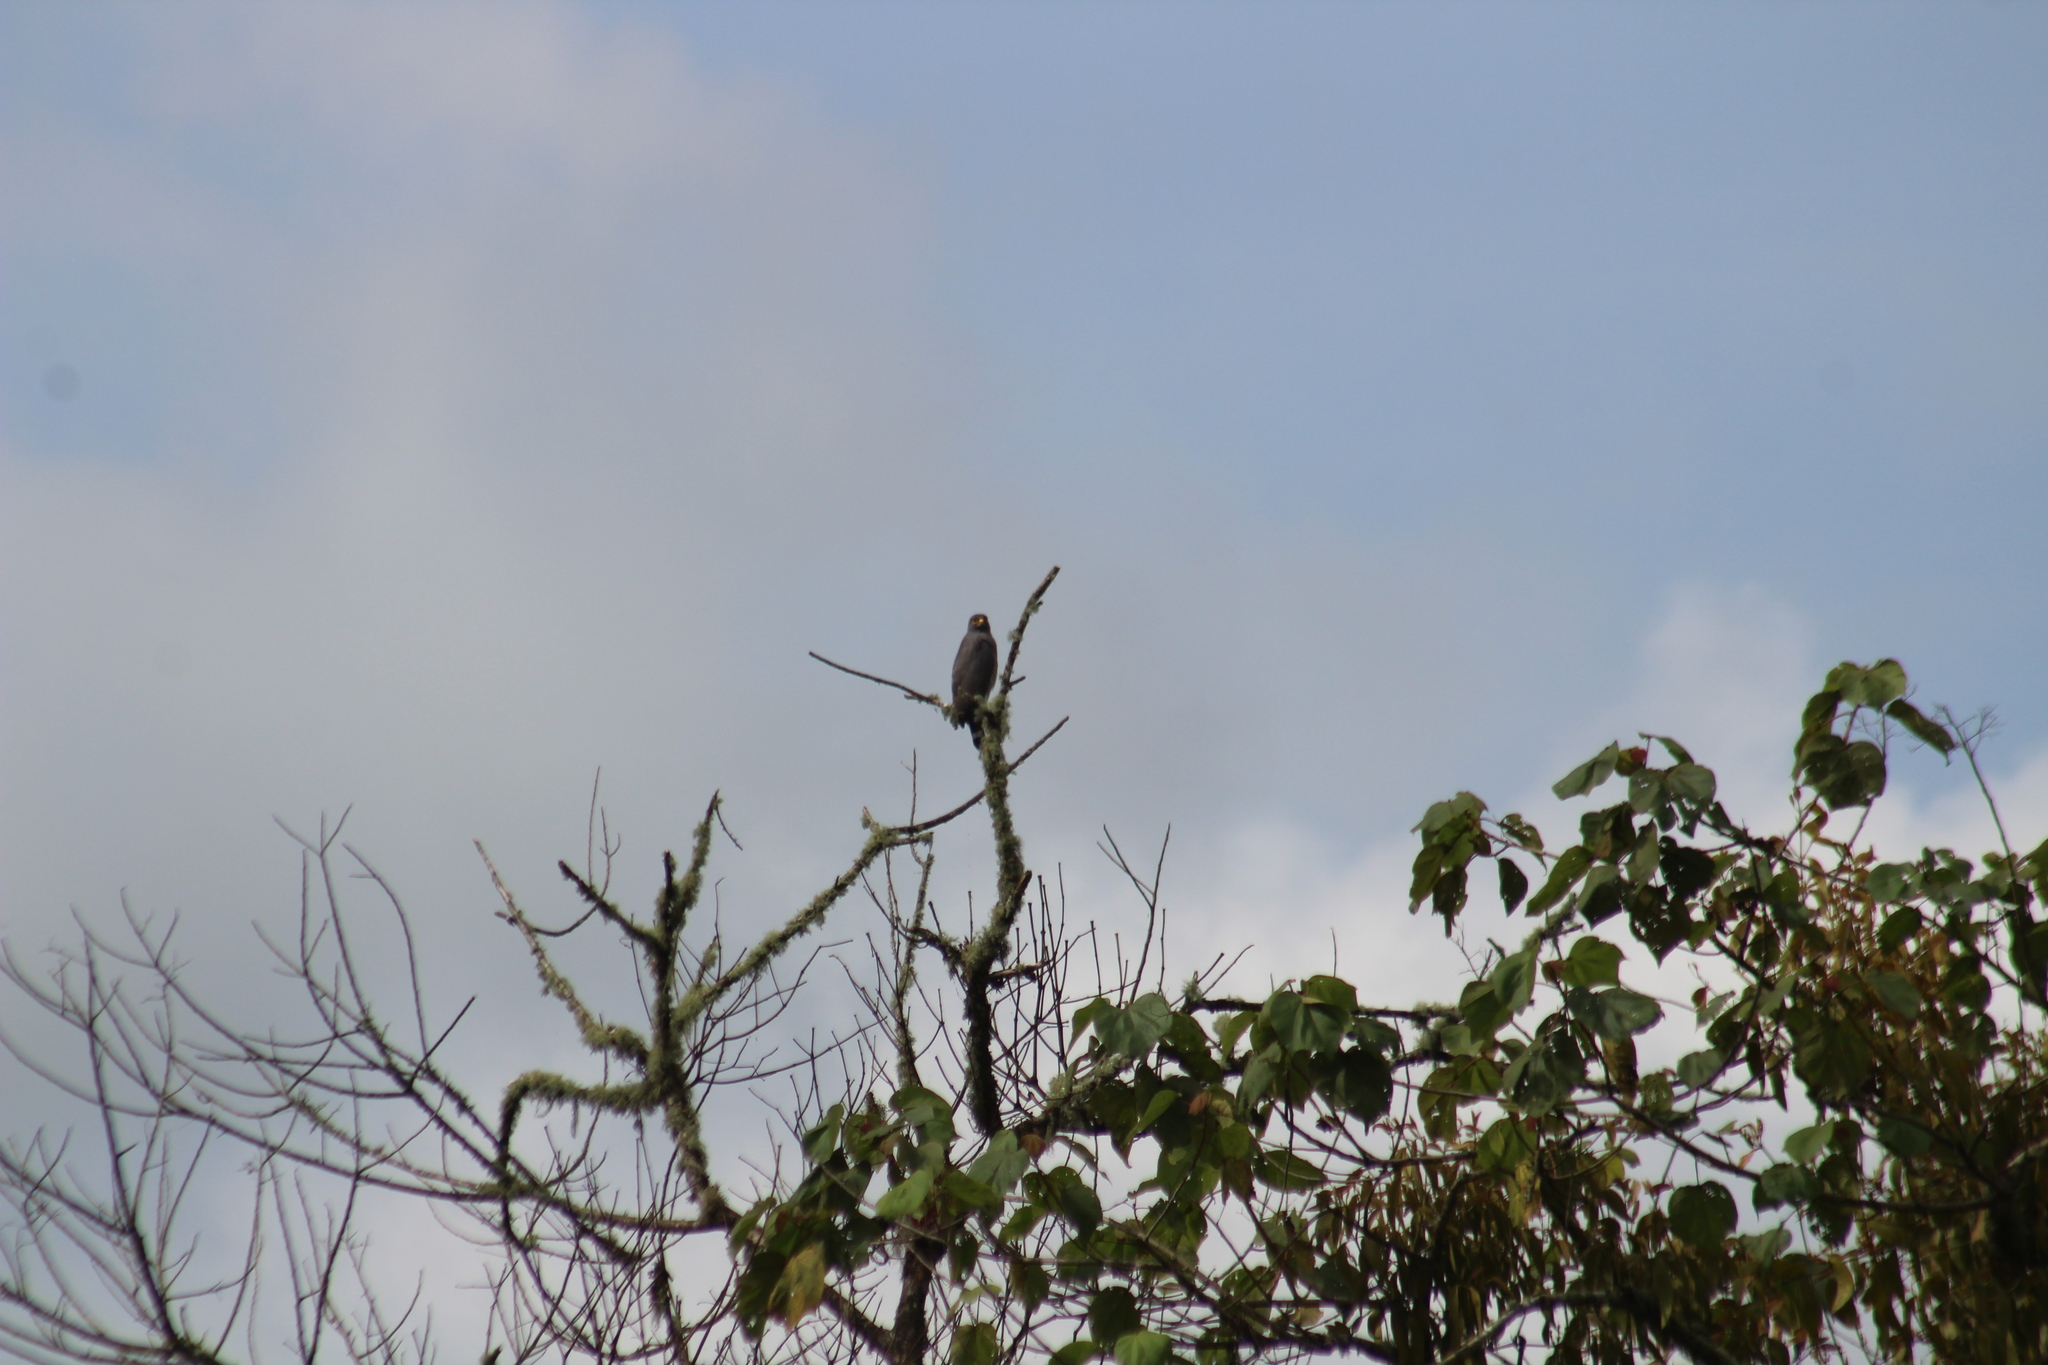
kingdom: Animalia
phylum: Chordata
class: Aves
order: Accipitriformes
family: Accipitridae
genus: Rupornis
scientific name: Rupornis magnirostris
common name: Roadside hawk
